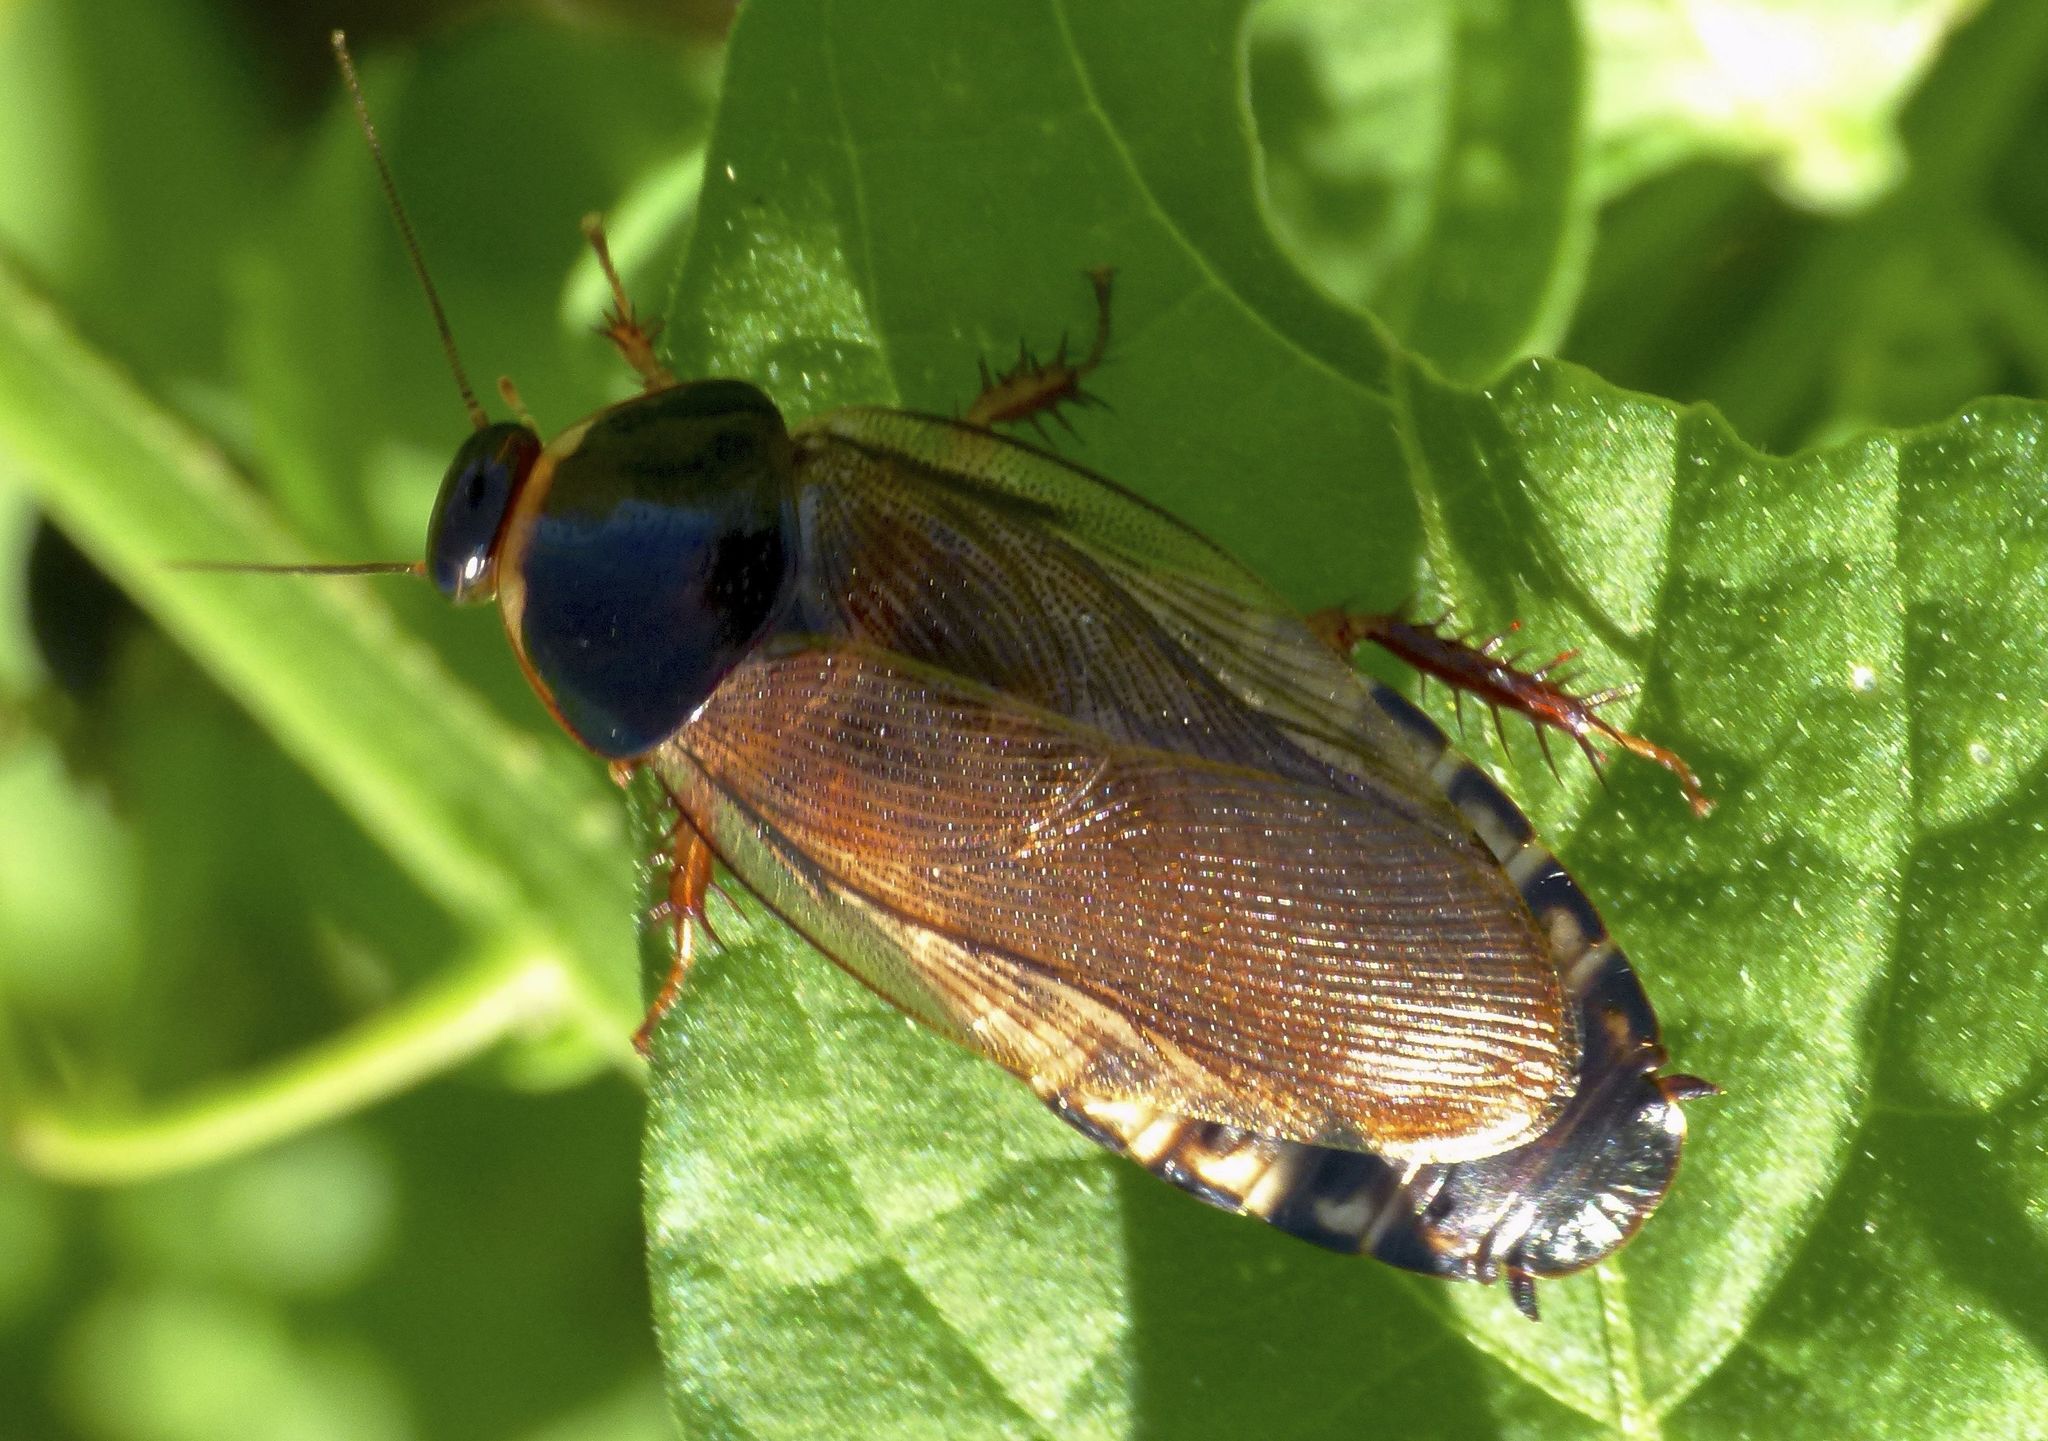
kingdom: Animalia
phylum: Arthropoda
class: Insecta
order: Blattodea
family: Blaberidae
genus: Pycnoscelus
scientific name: Pycnoscelus surinamensis
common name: Surinam cockroach
